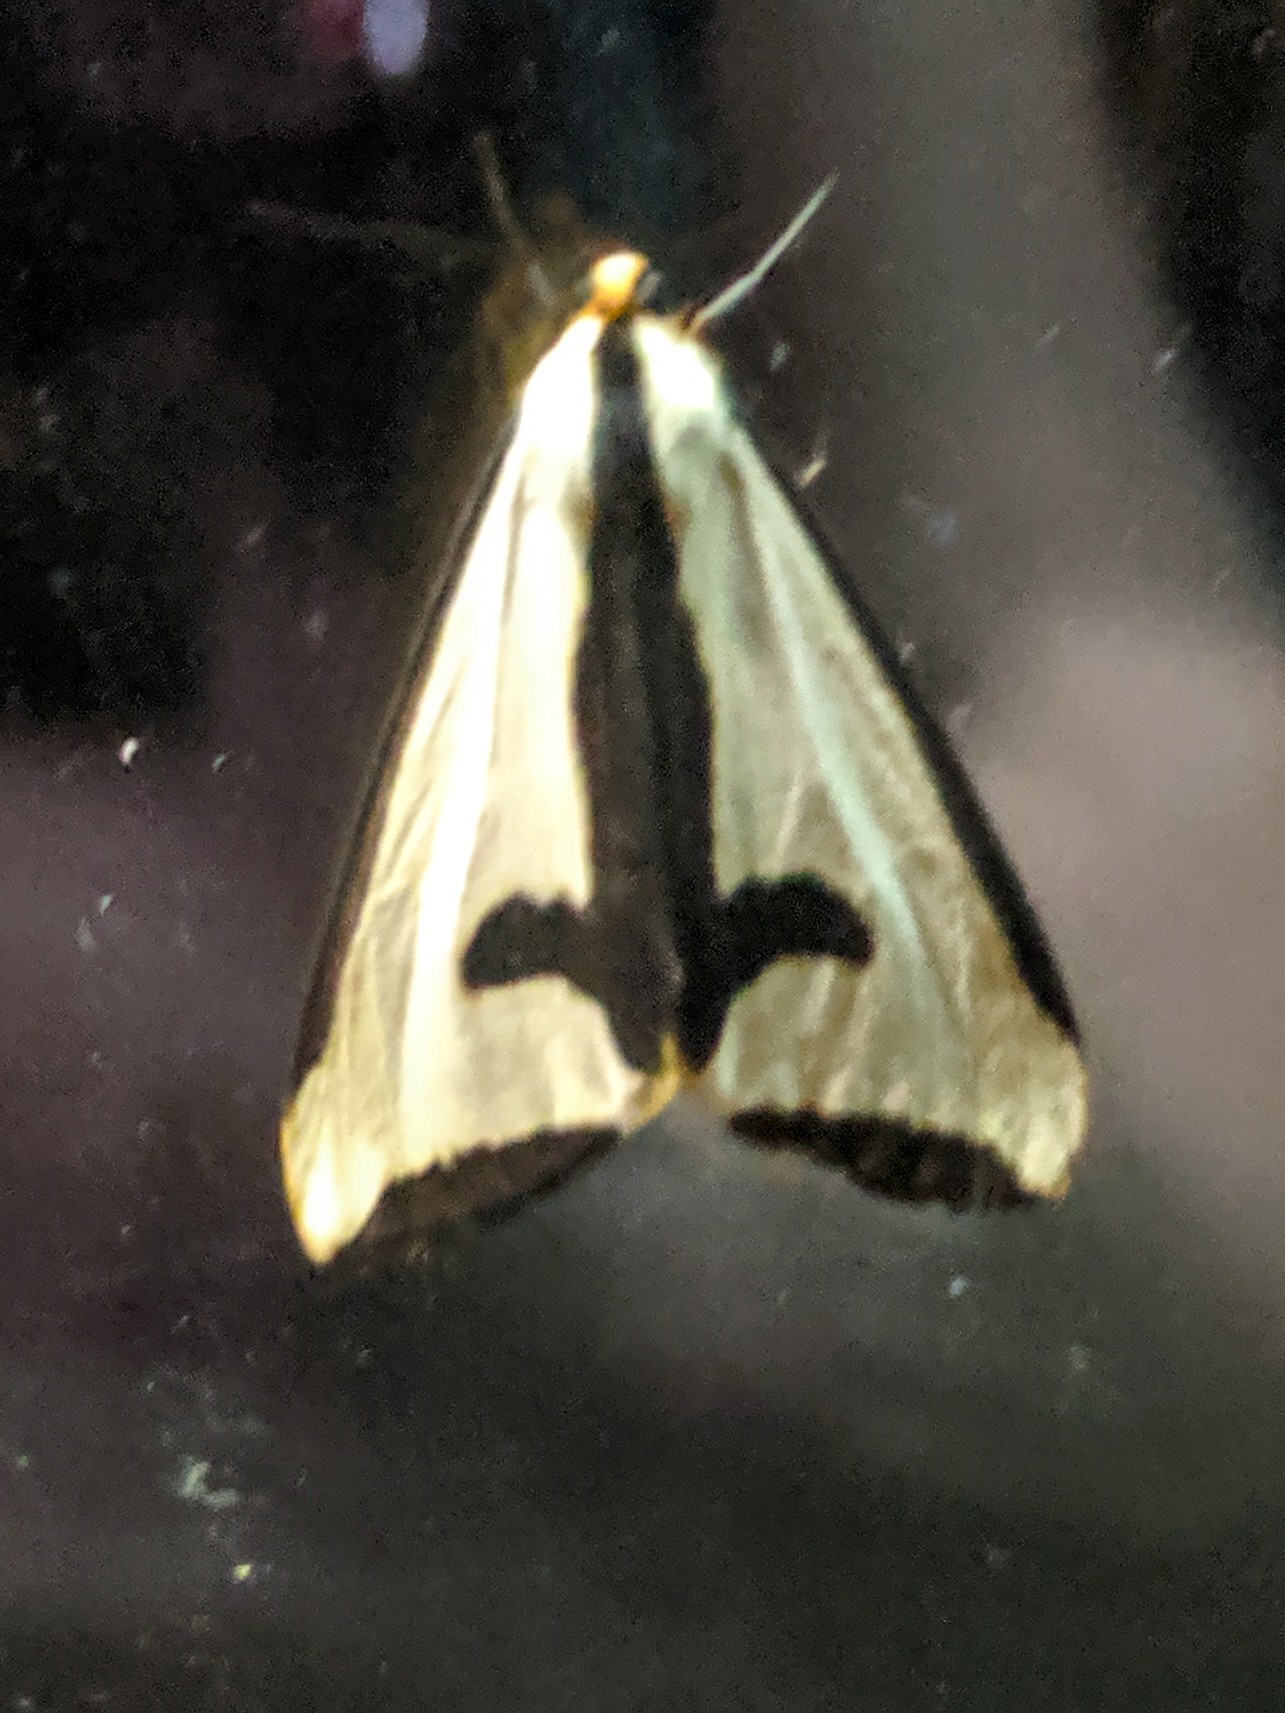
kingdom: Animalia
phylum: Arthropoda
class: Insecta
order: Lepidoptera
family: Erebidae
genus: Haploa
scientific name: Haploa clymene
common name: Clymene moth
